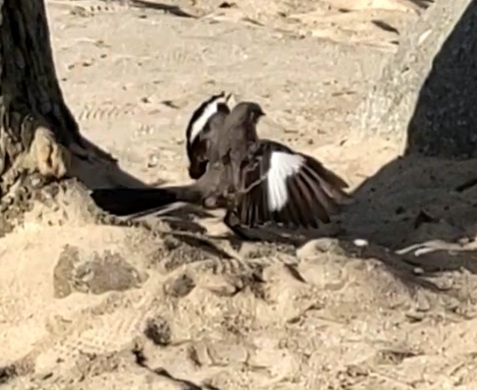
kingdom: Animalia
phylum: Chordata
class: Aves
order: Passeriformes
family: Mimidae
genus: Mimus
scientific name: Mimus polyglottos
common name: Northern mockingbird
